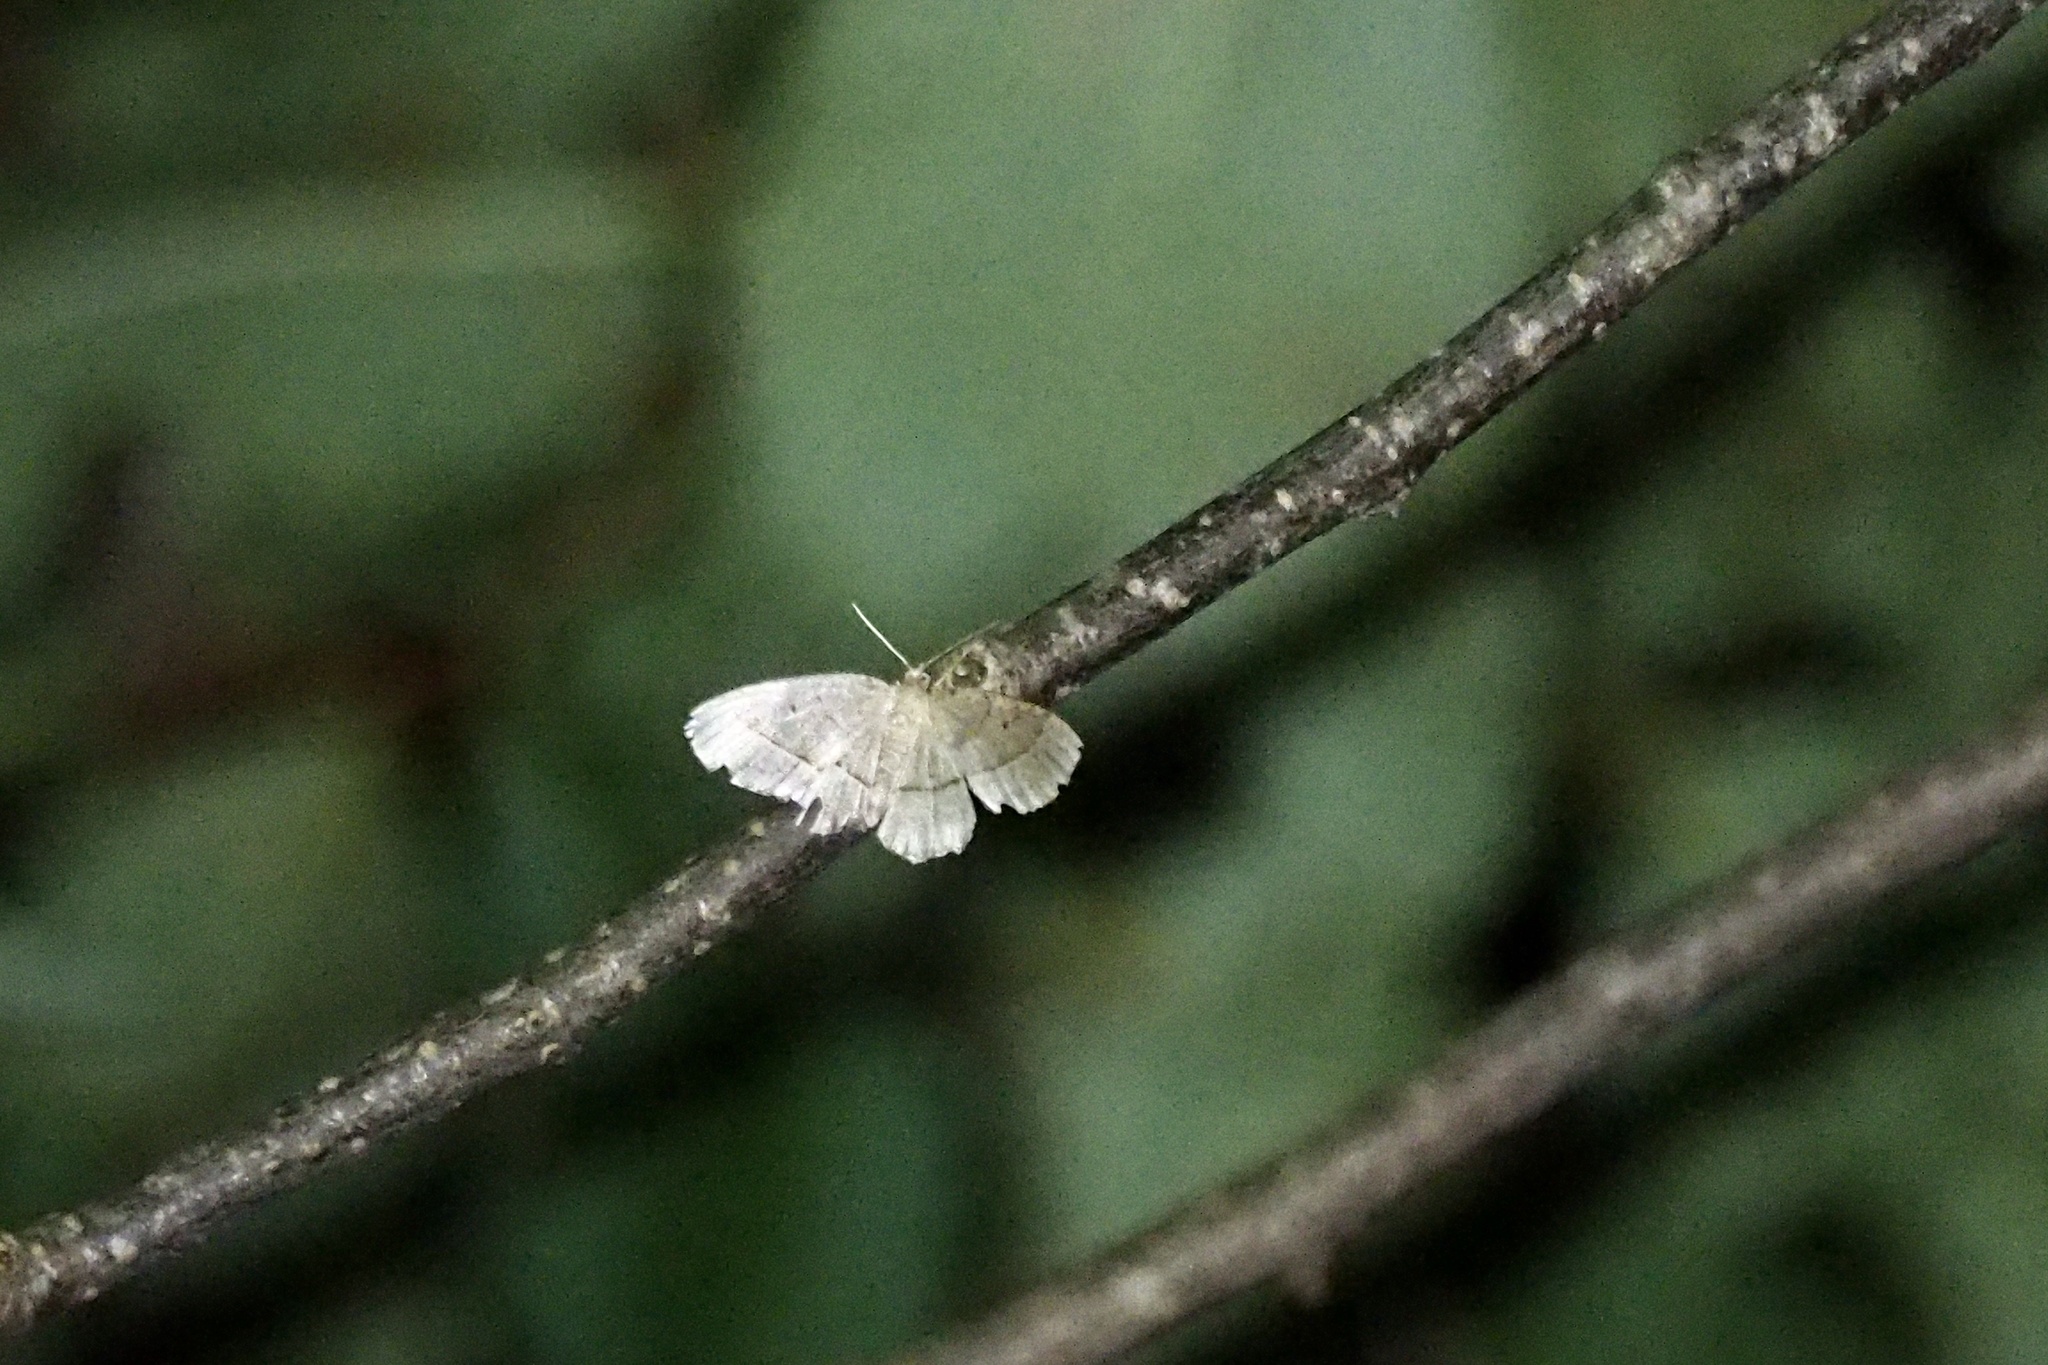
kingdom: Animalia
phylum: Arthropoda
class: Insecta
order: Lepidoptera
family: Geometridae
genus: Rhynchobapta
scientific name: Rhynchobapta cervinaria
